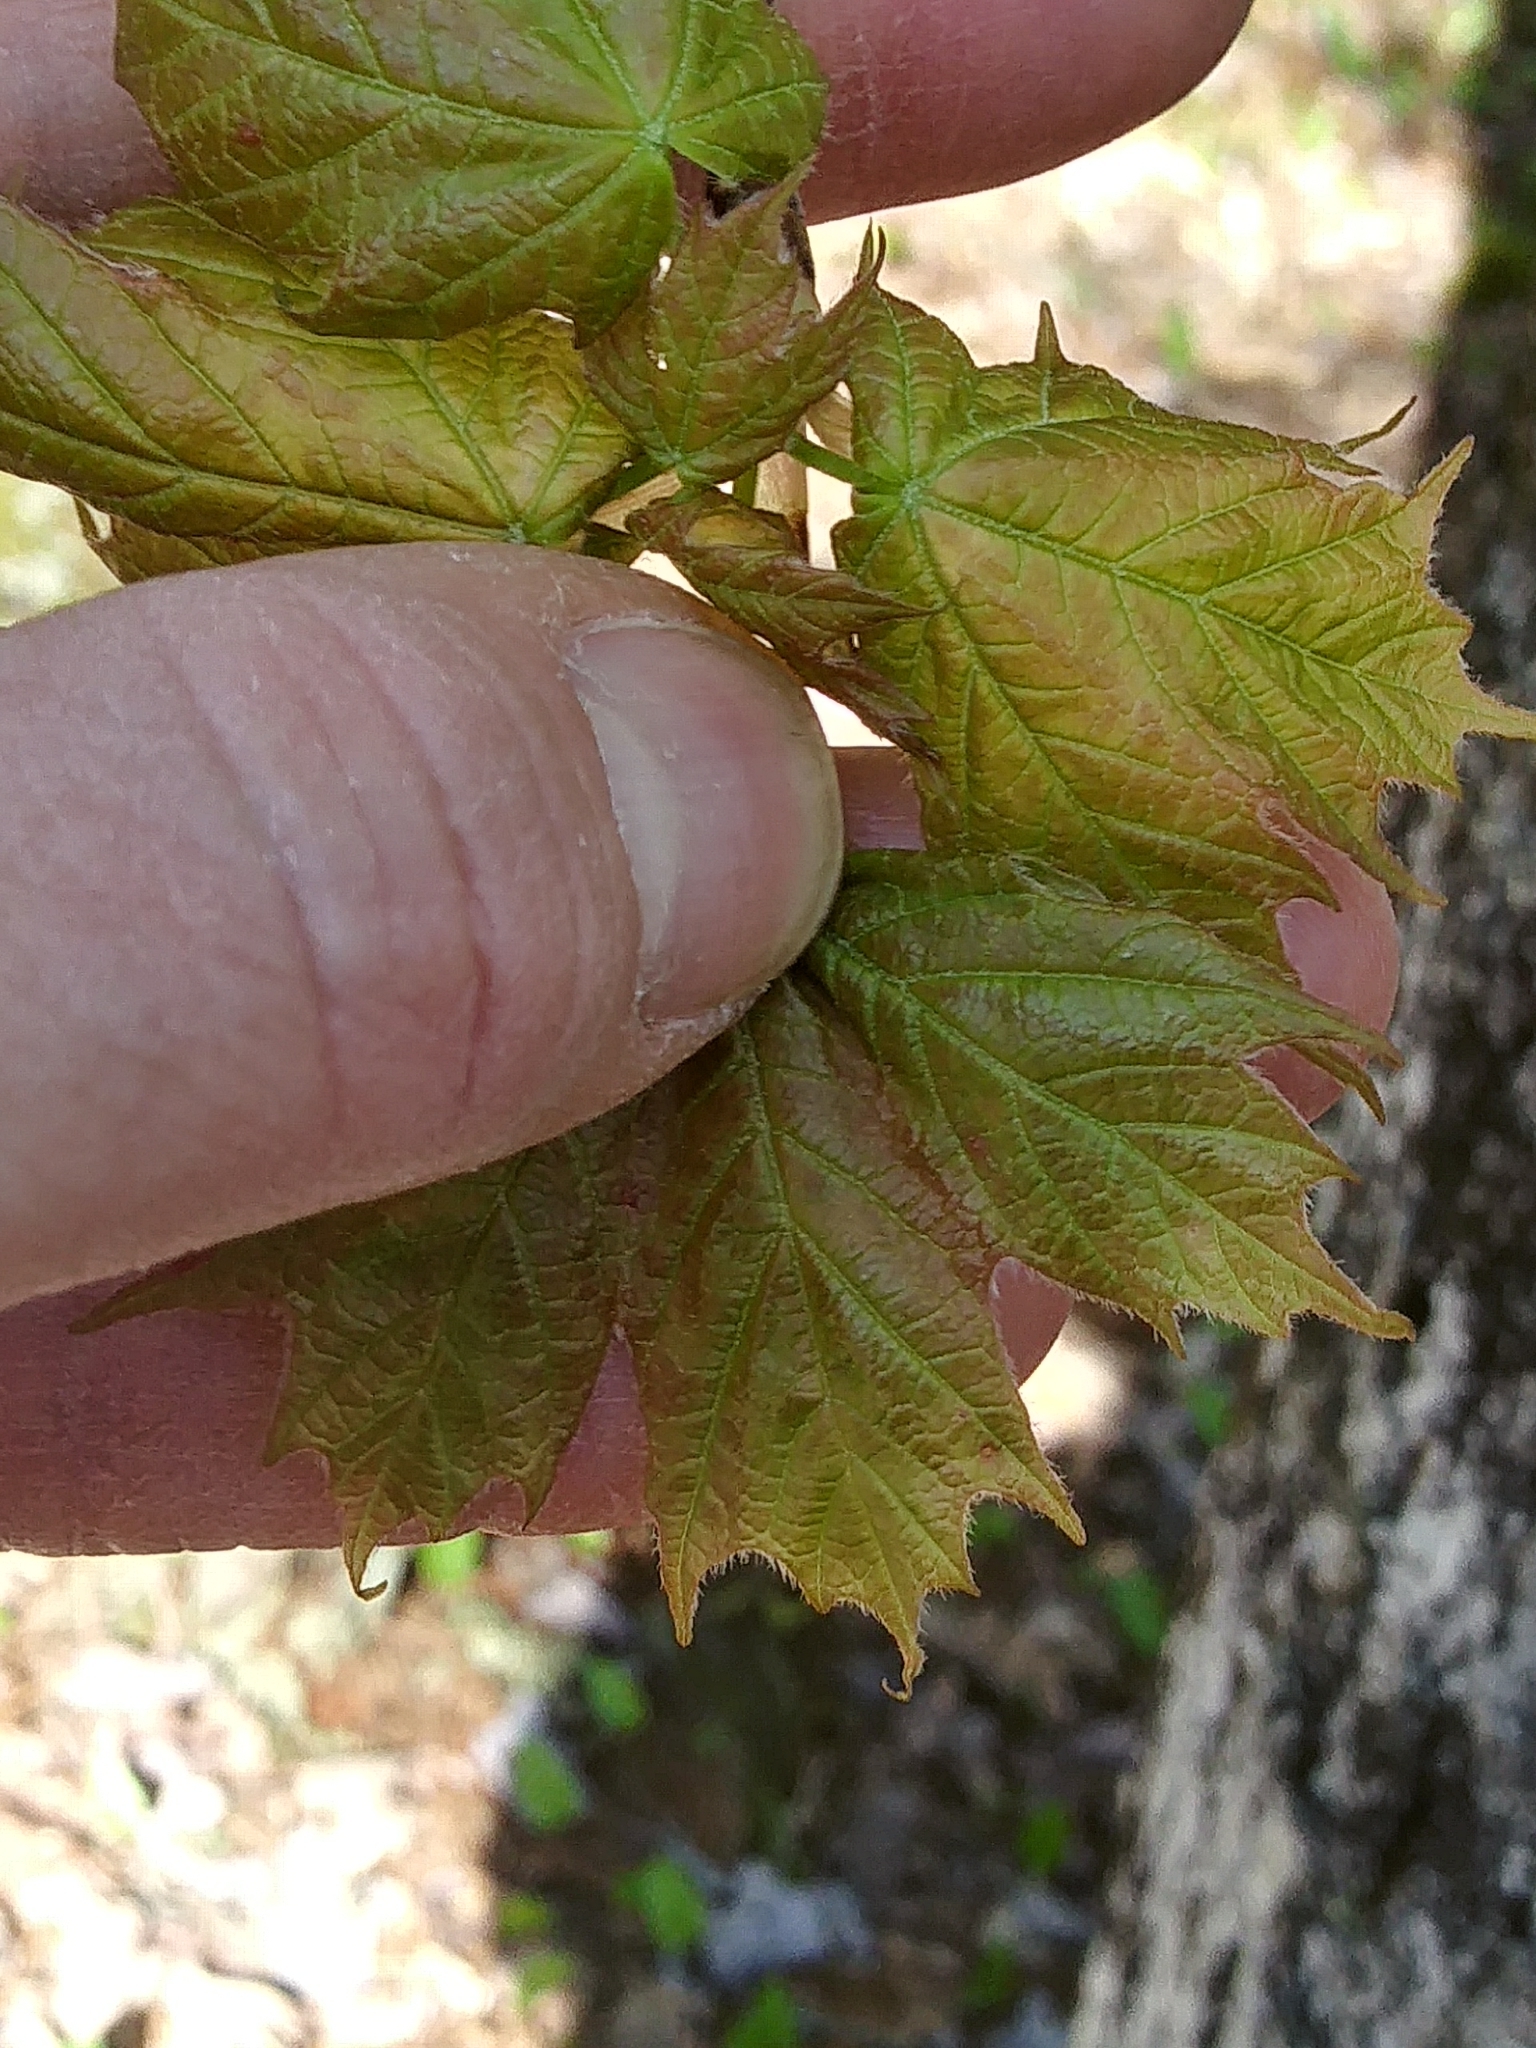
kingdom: Plantae
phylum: Tracheophyta
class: Magnoliopsida
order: Sapindales
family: Sapindaceae
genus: Acer
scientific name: Acer saccharum
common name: Sugar maple
